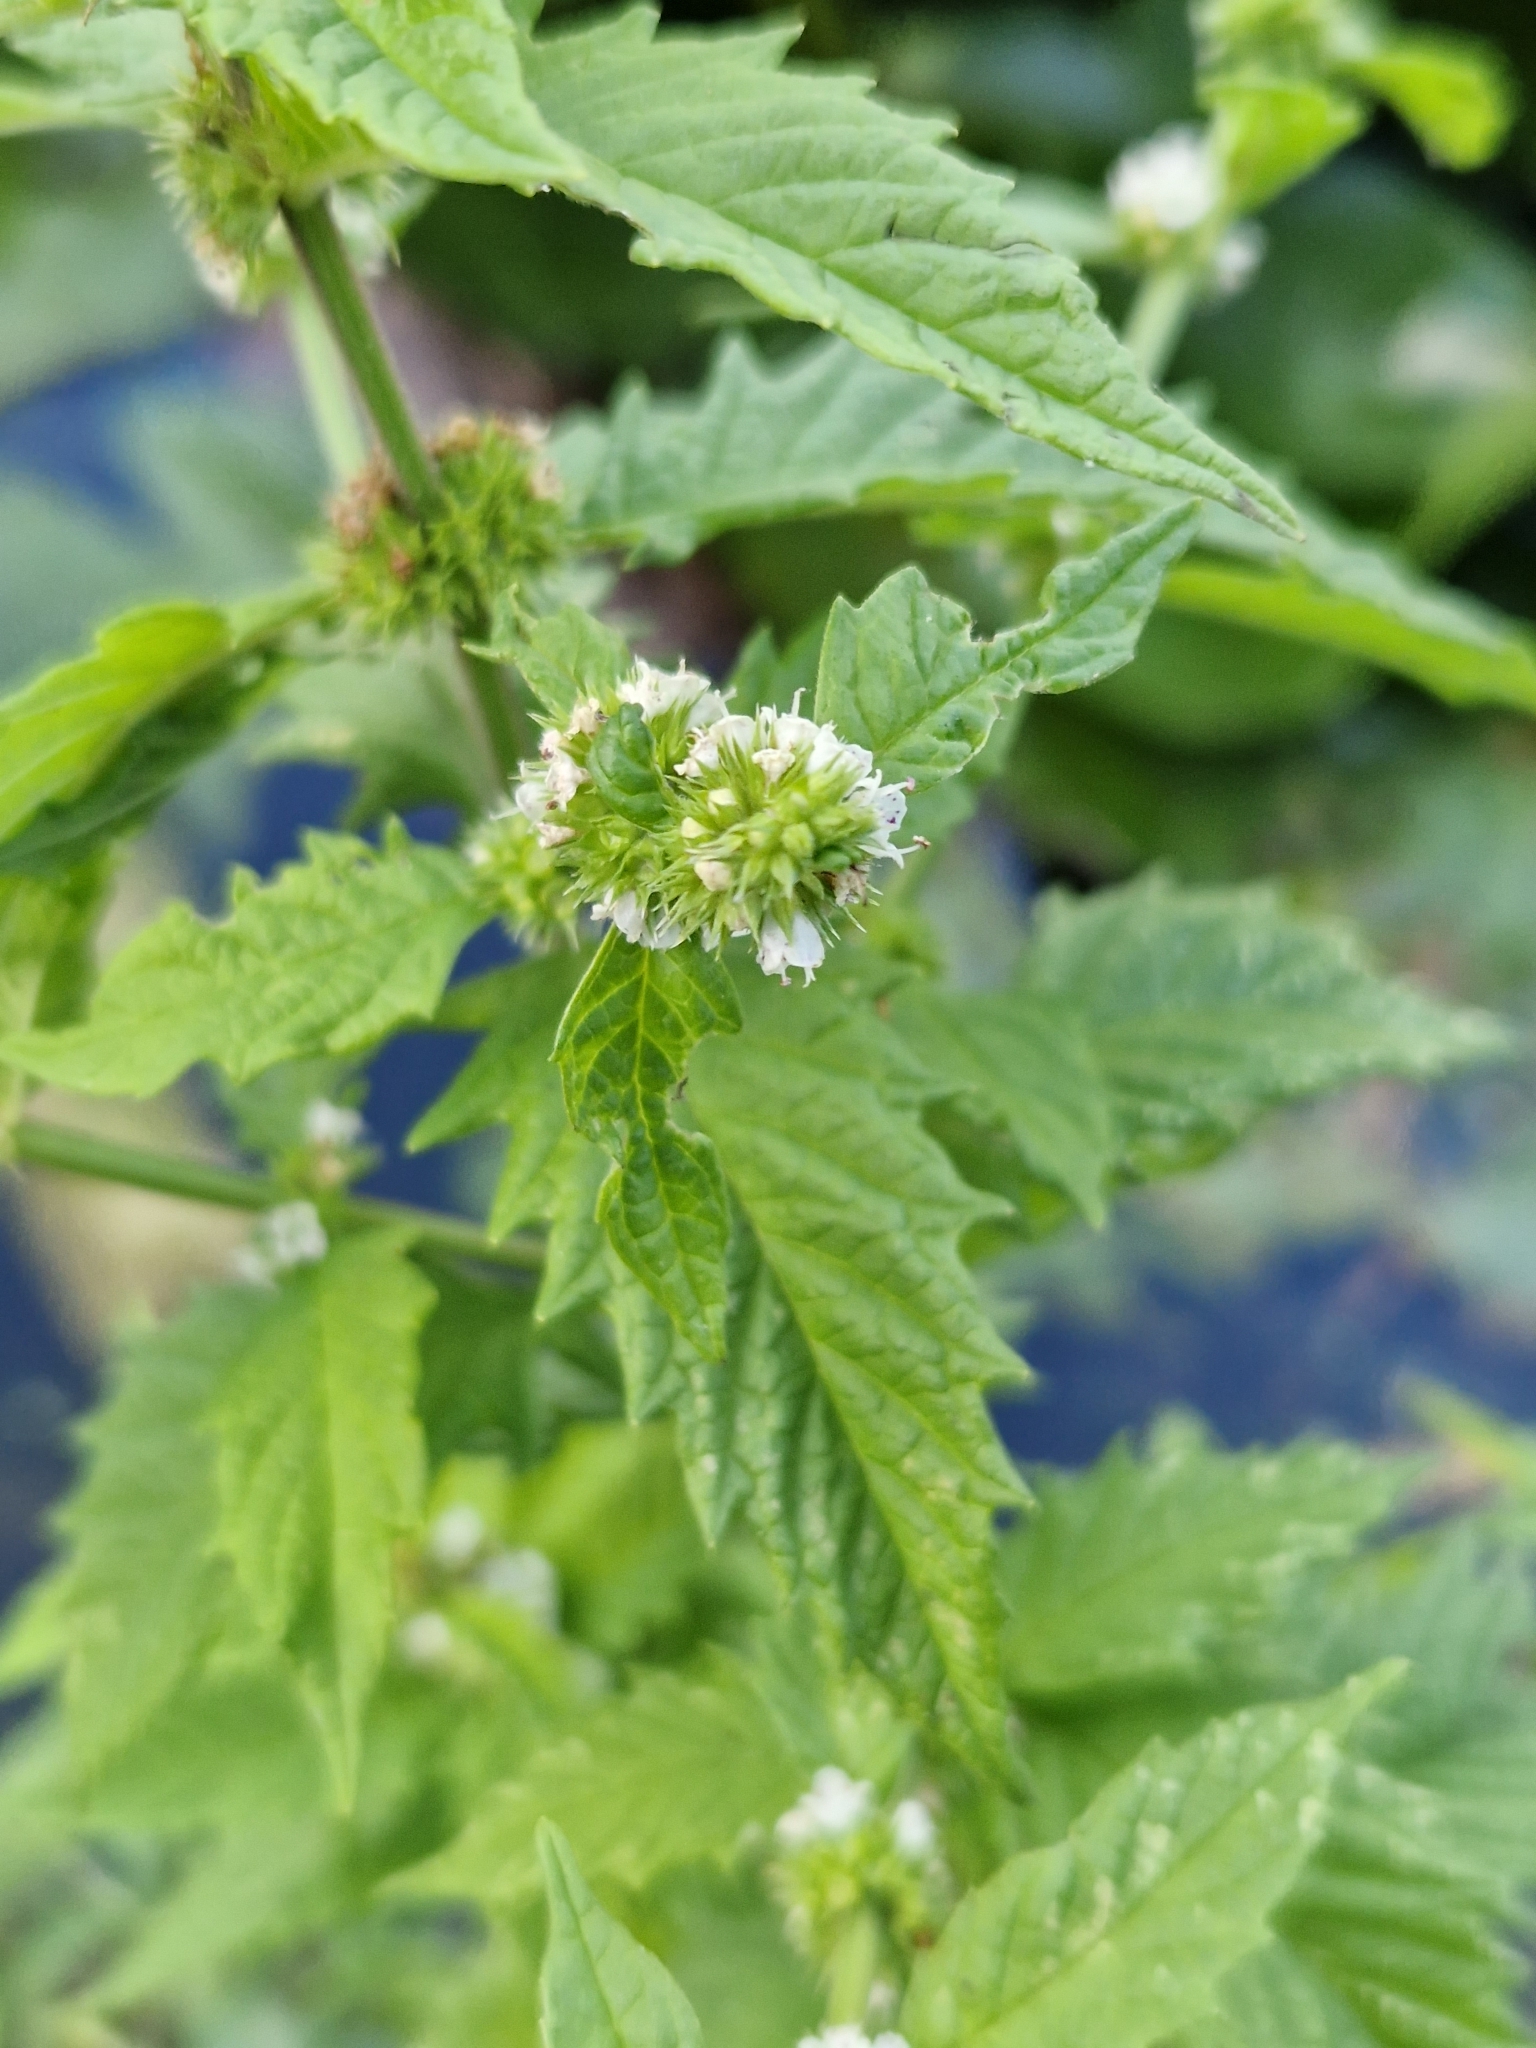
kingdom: Plantae
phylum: Tracheophyta
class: Magnoliopsida
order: Lamiales
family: Lamiaceae
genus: Lycopus
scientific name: Lycopus europaeus
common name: European bugleweed
